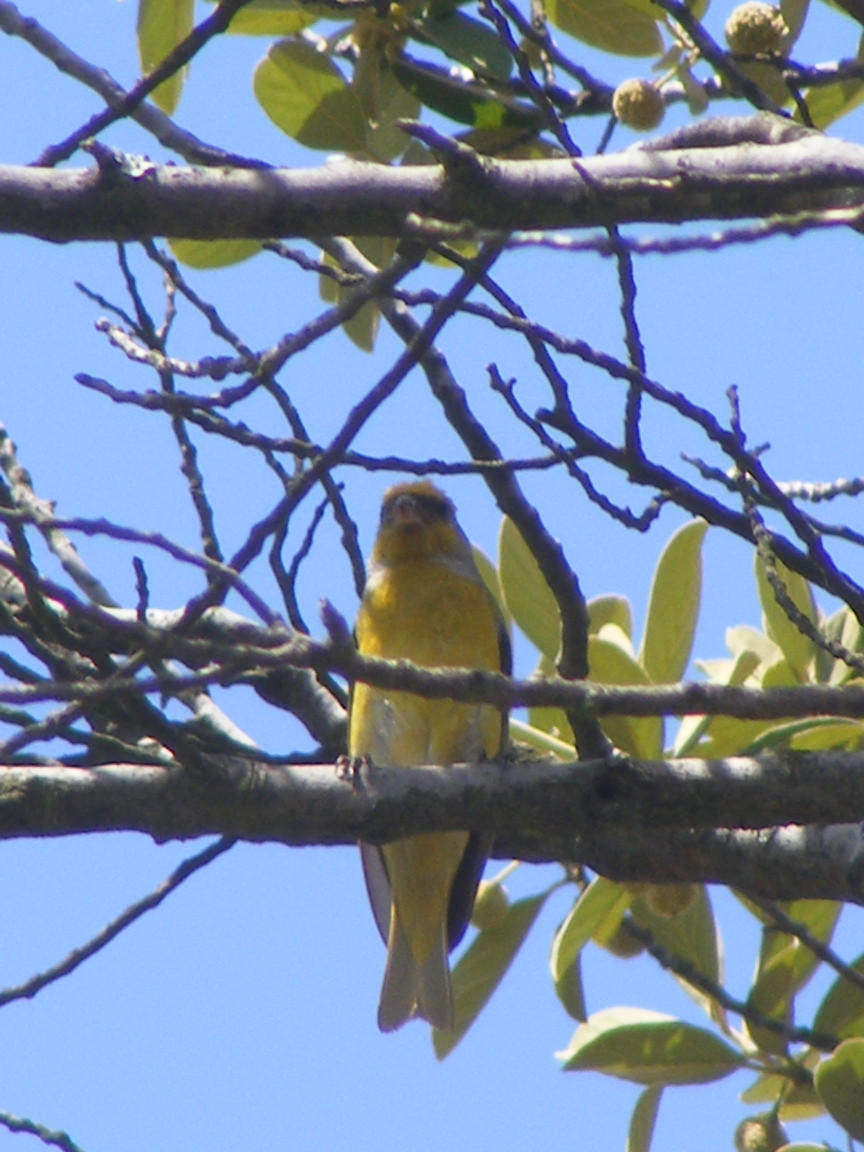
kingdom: Animalia
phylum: Chordata
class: Aves
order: Passeriformes
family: Fringillidae
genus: Serinus
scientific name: Serinus canicollis
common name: Cape canary
